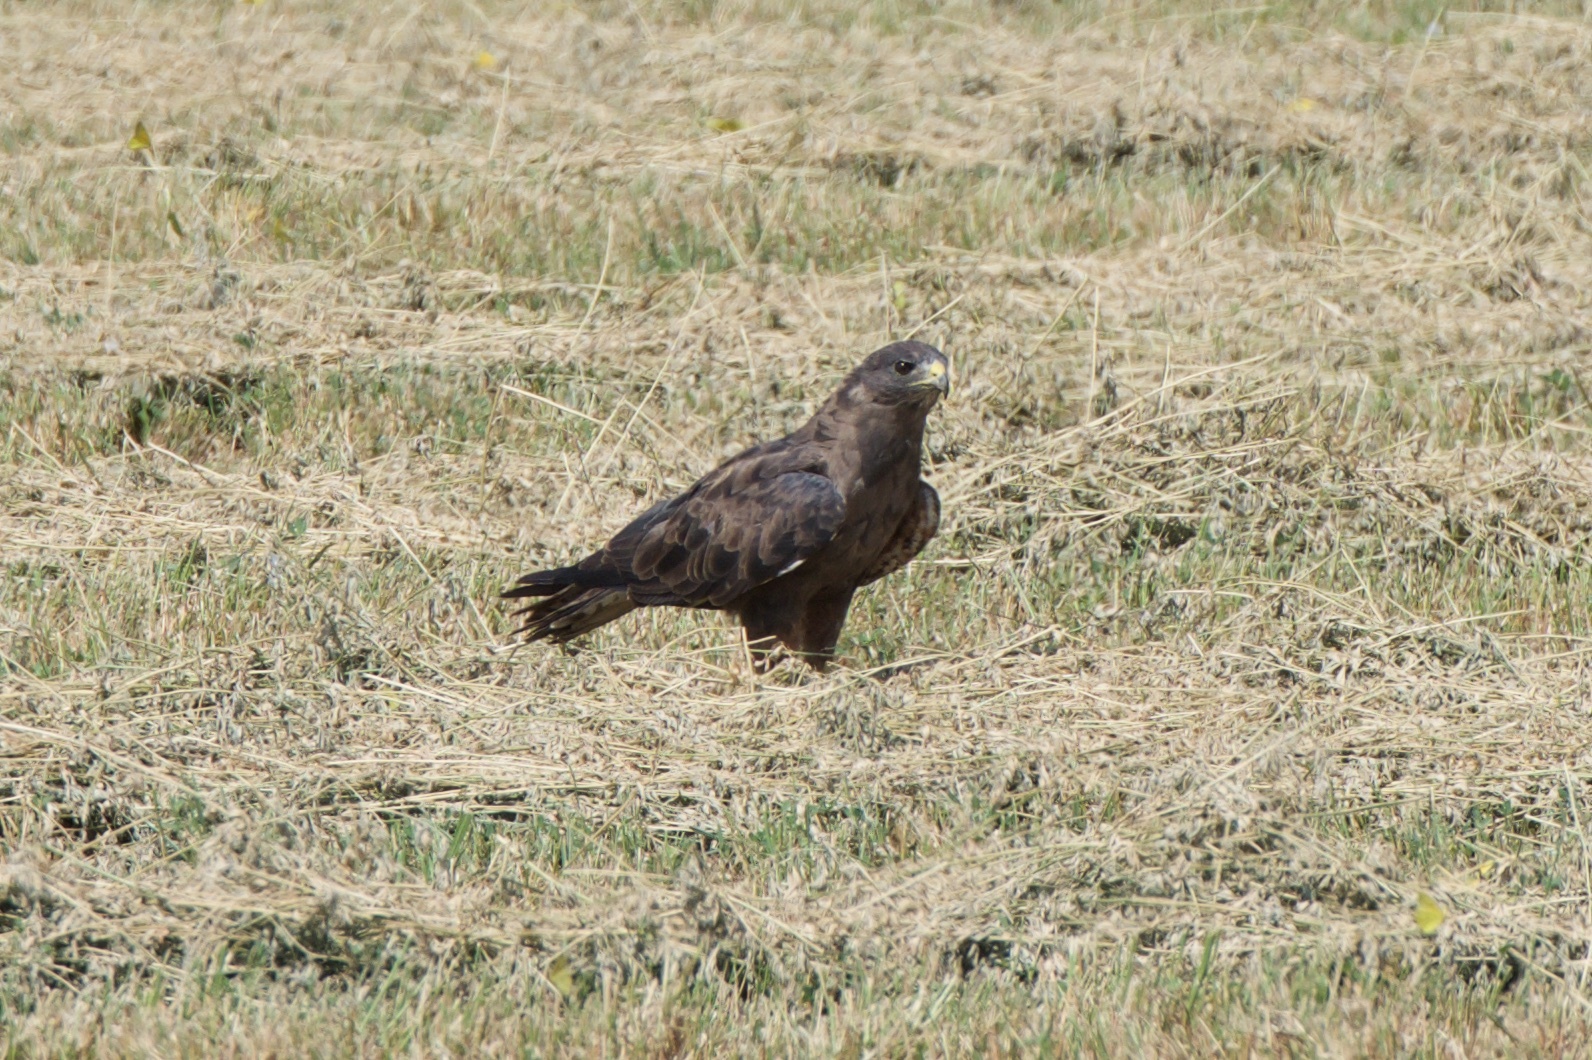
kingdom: Animalia
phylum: Chordata
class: Aves
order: Accipitriformes
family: Accipitridae
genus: Buteo
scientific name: Buteo swainsoni
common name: Swainson's hawk
